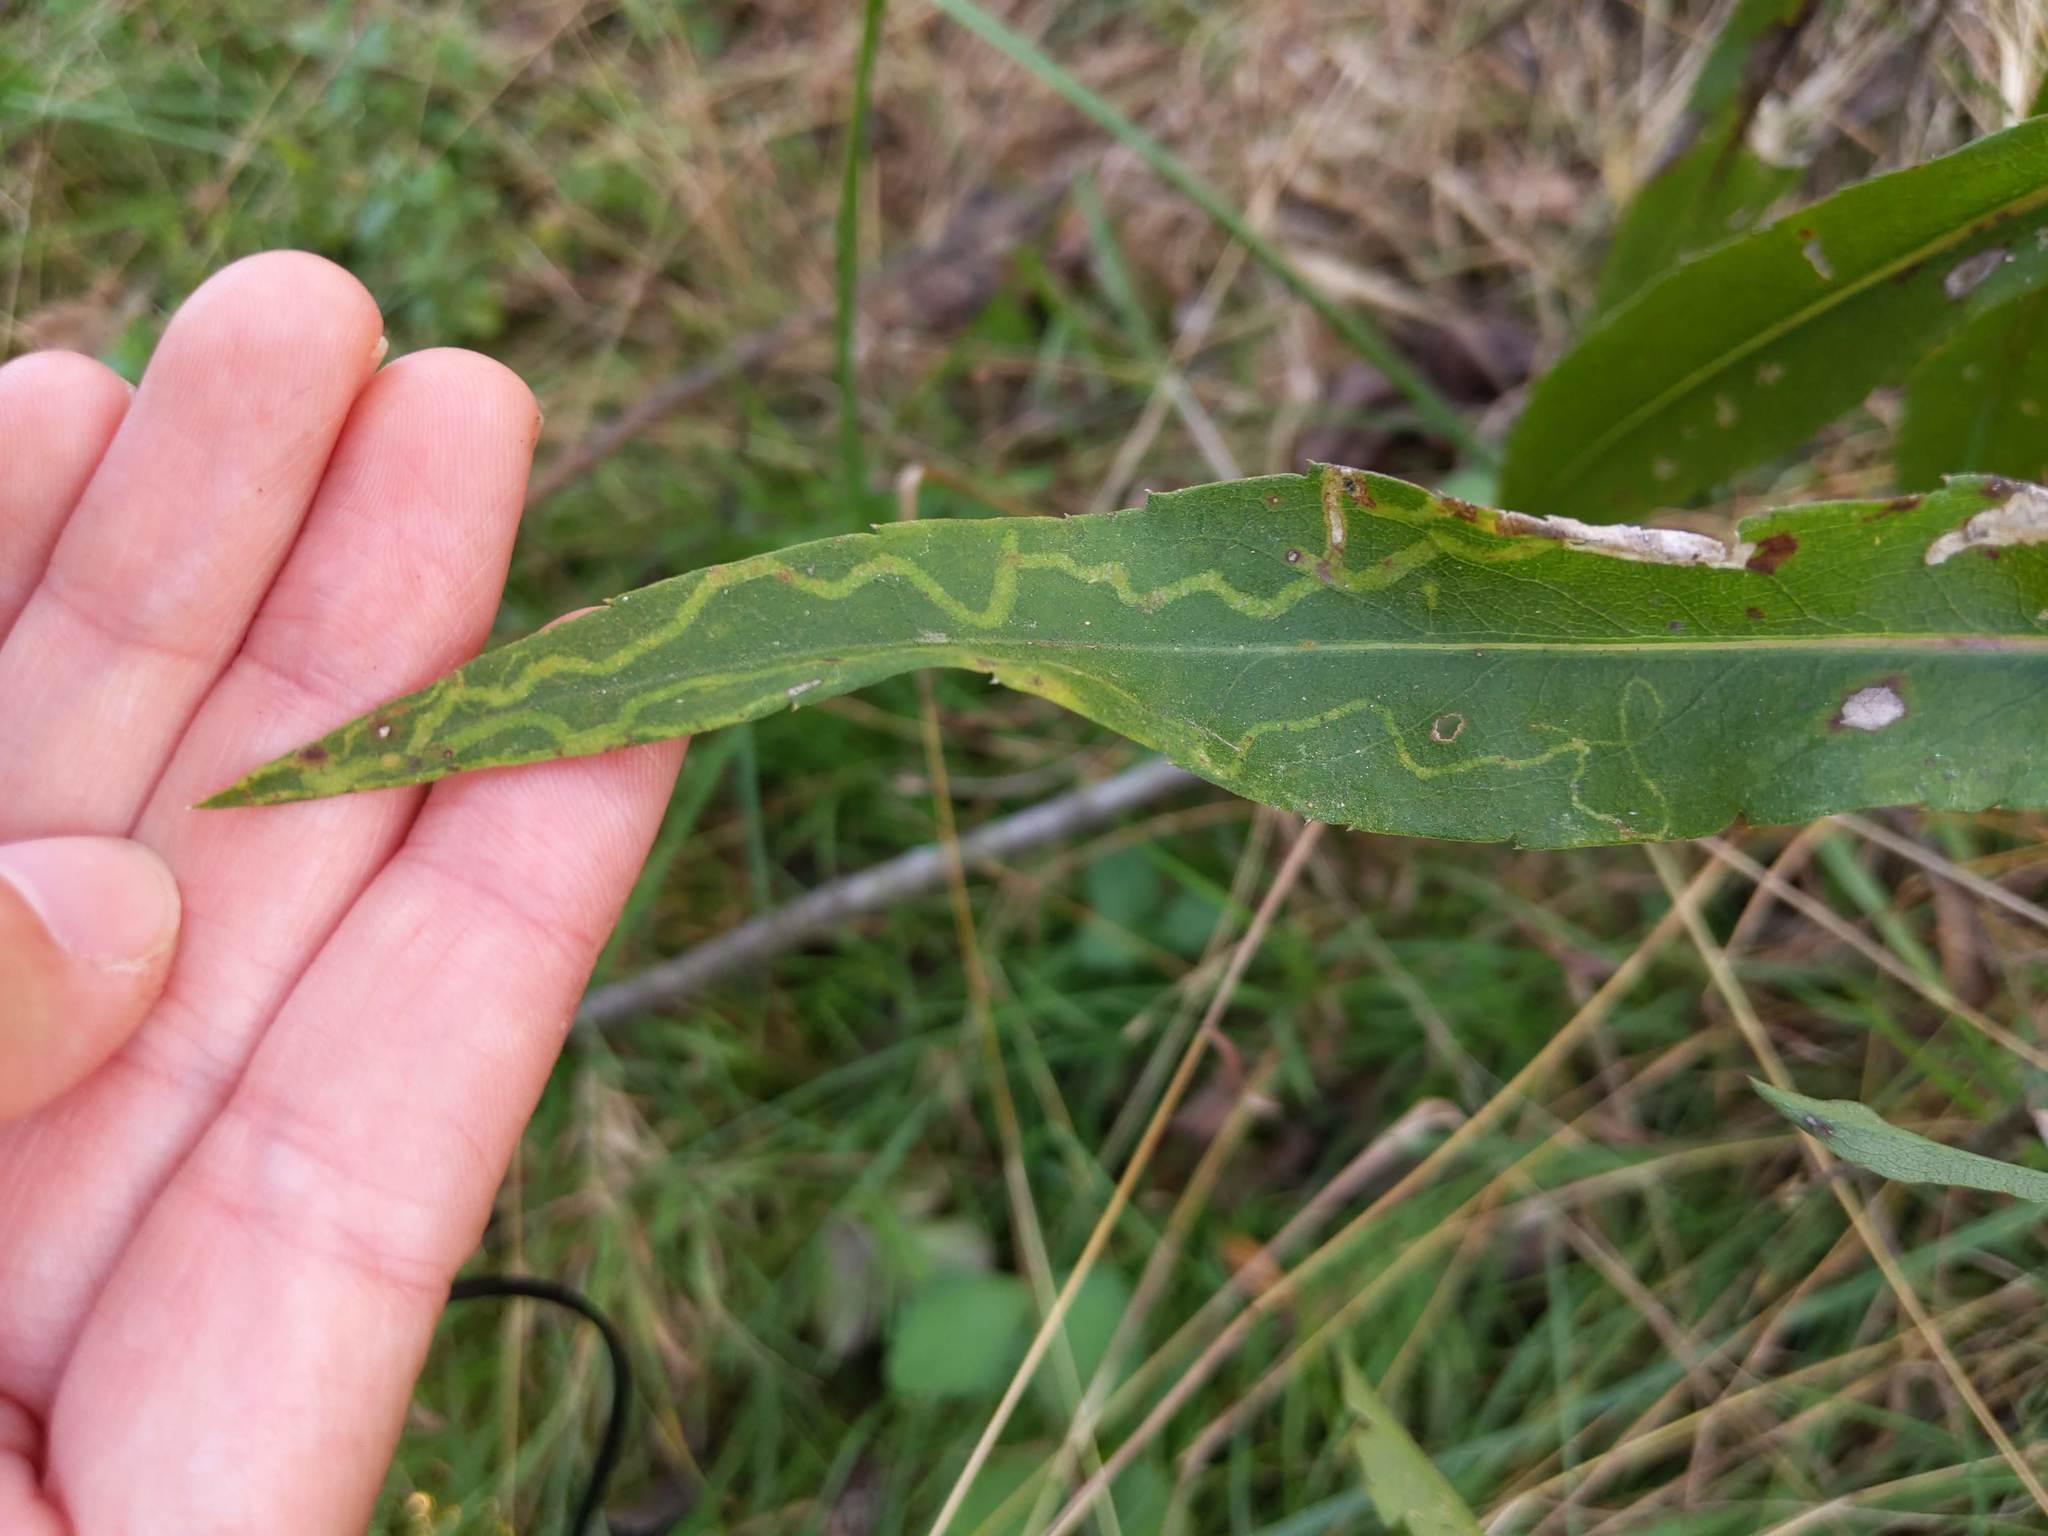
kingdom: Animalia
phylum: Arthropoda
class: Insecta
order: Diptera
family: Agromyzidae
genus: Ophiomyia
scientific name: Ophiomyia parda
